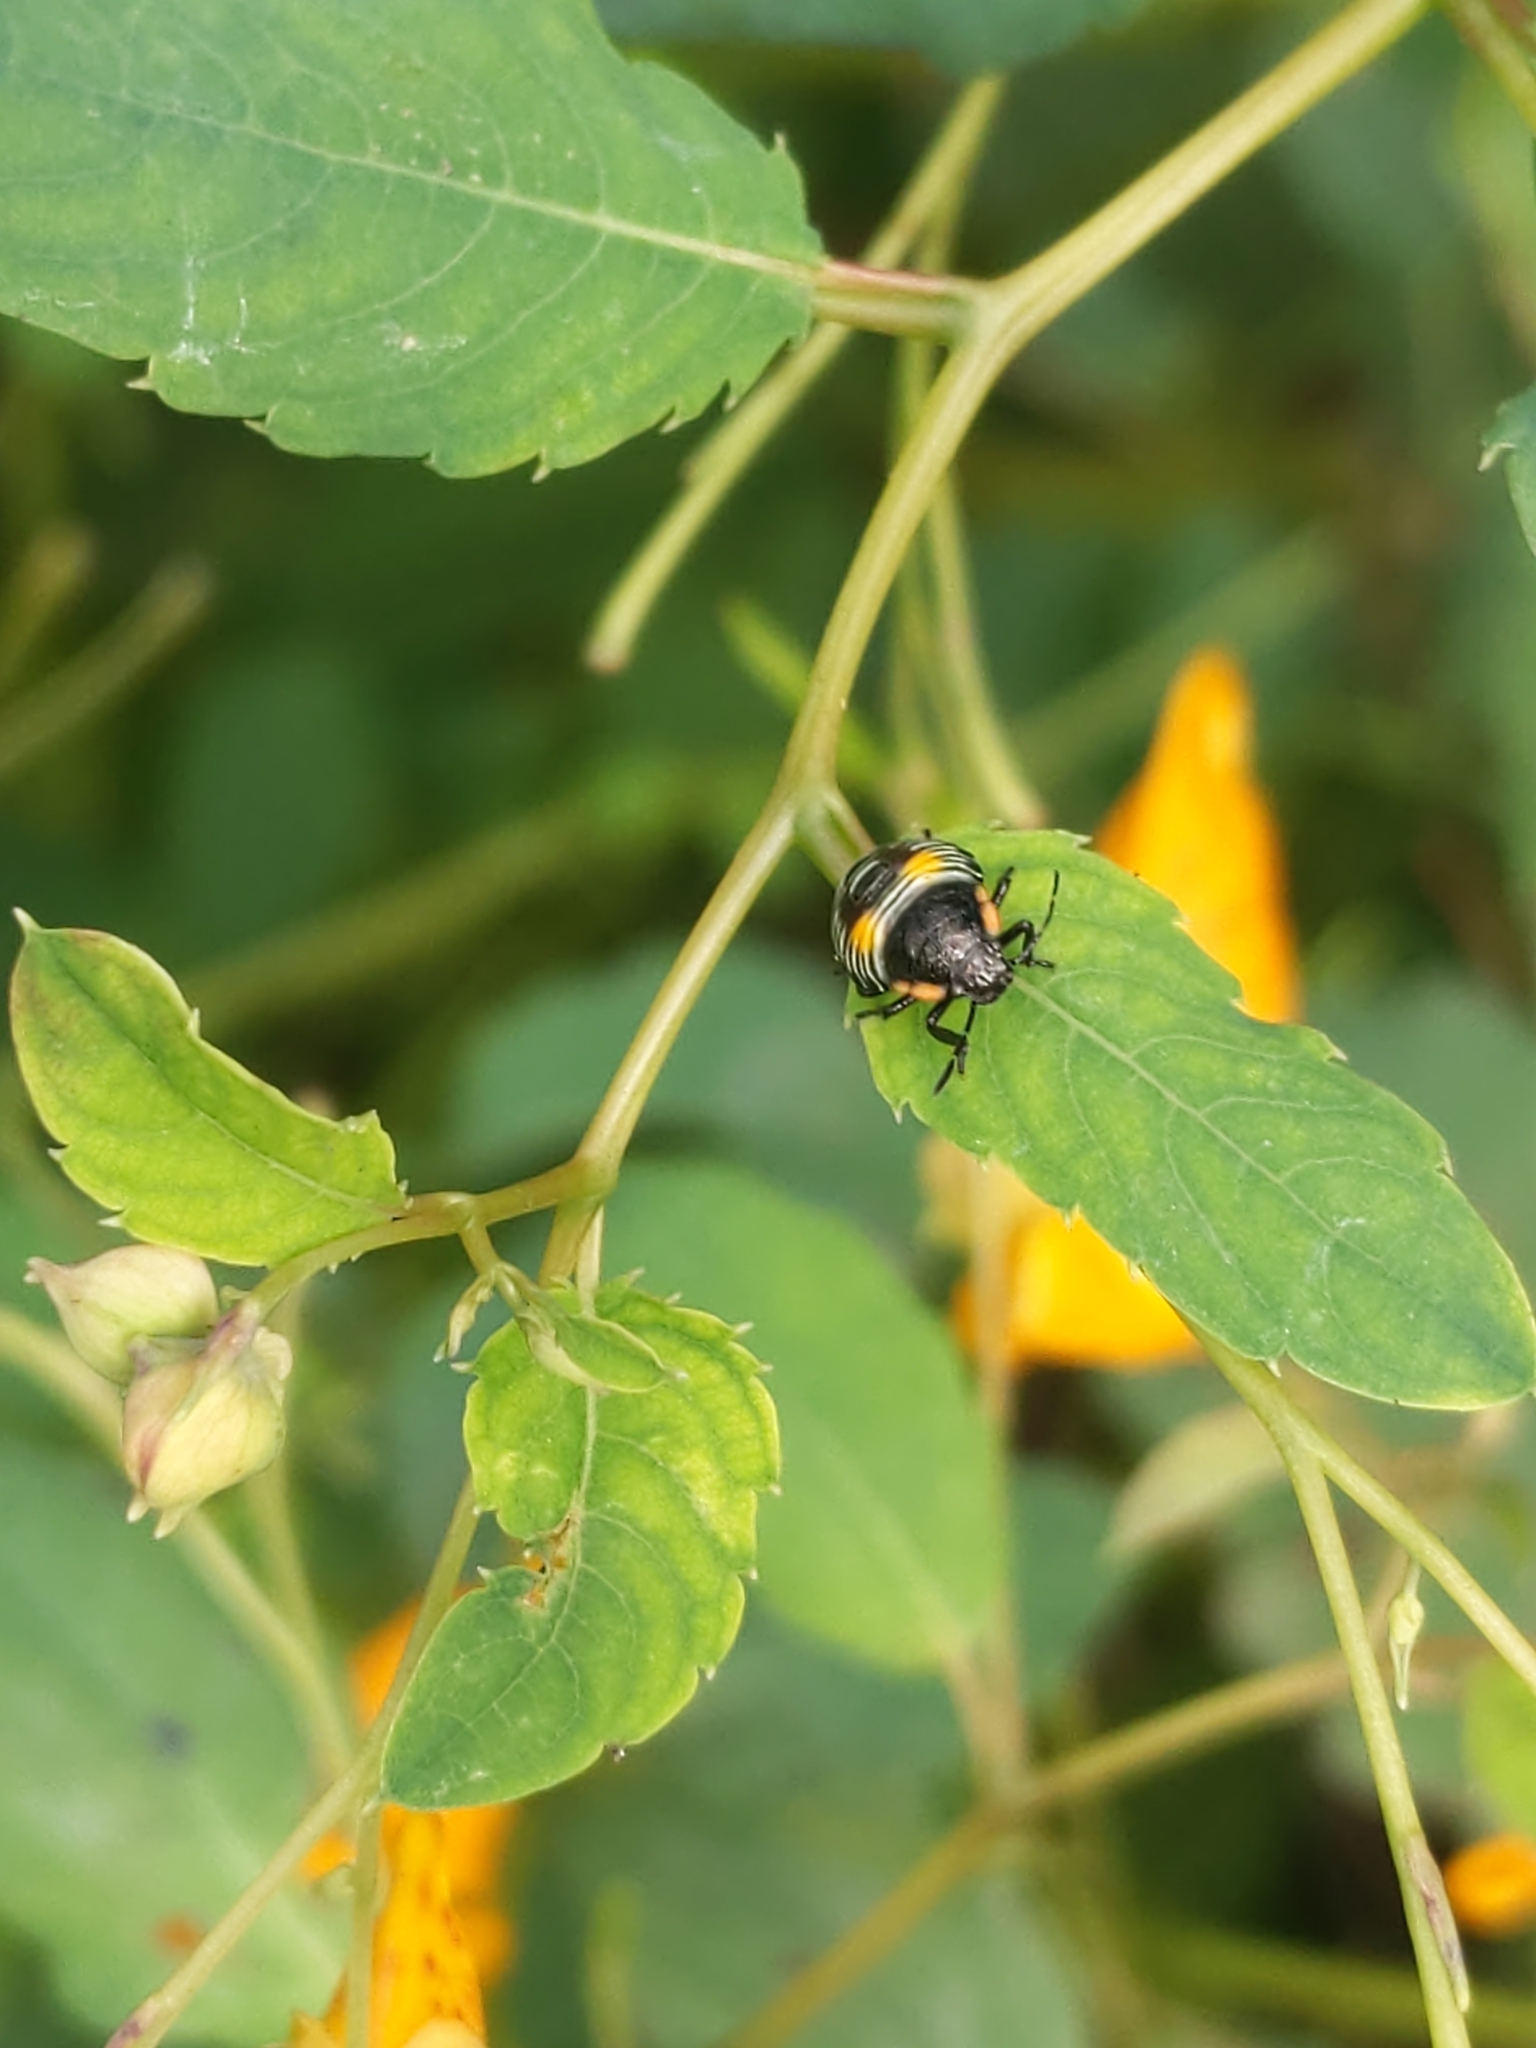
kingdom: Animalia
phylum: Arthropoda
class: Insecta
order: Hemiptera
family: Pentatomidae
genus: Chinavia
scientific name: Chinavia hilaris
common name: Green stink bug
